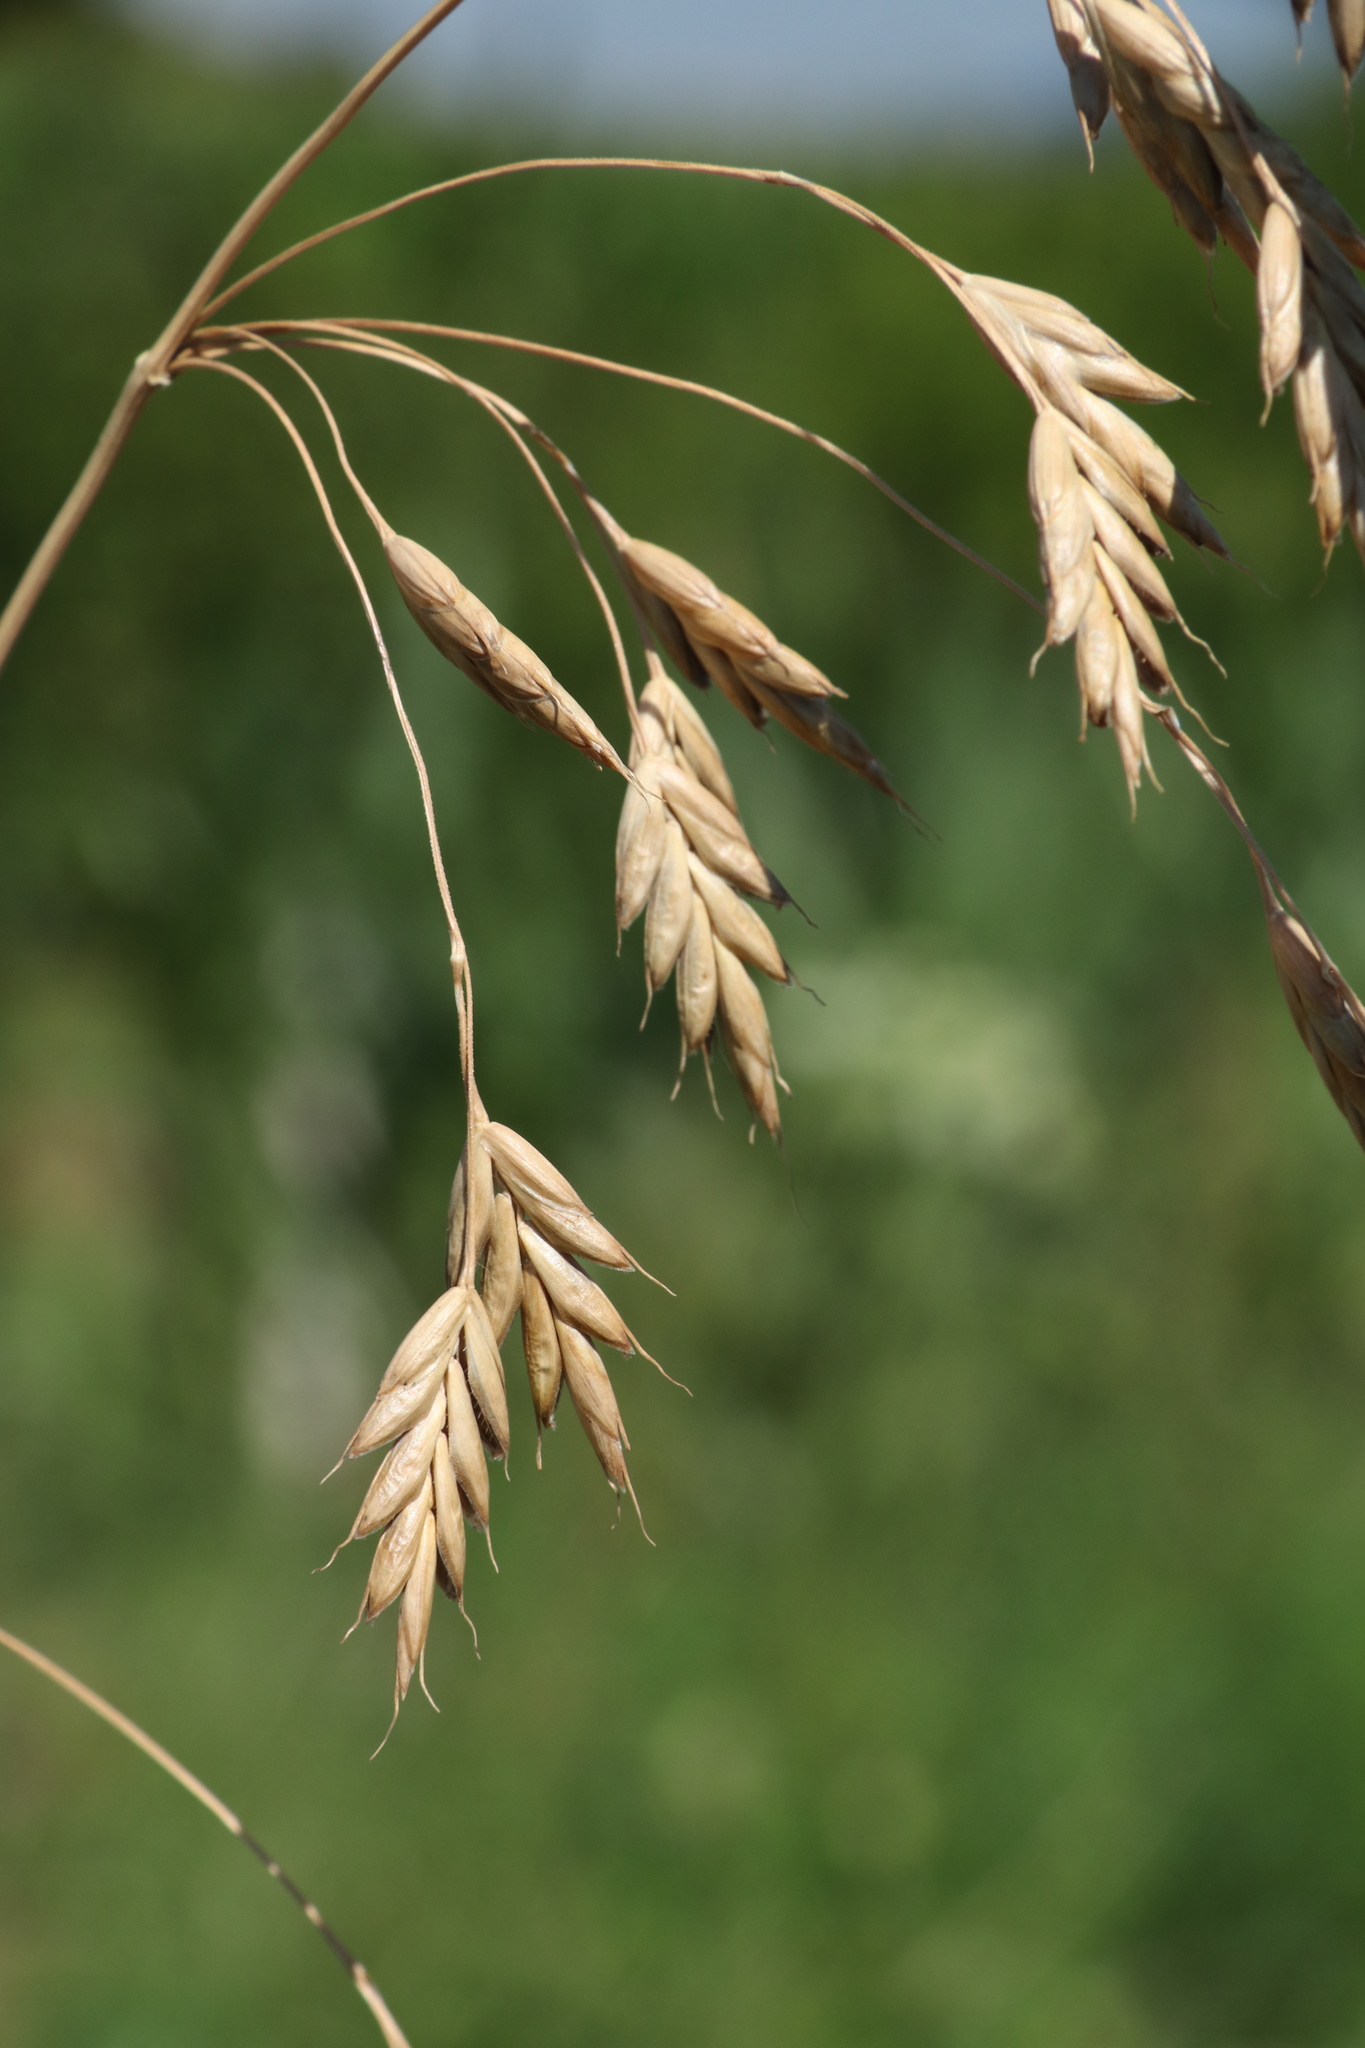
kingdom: Plantae
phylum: Tracheophyta
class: Liliopsida
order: Poales
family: Poaceae
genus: Bromus
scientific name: Bromus secalinus
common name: Rye brome
